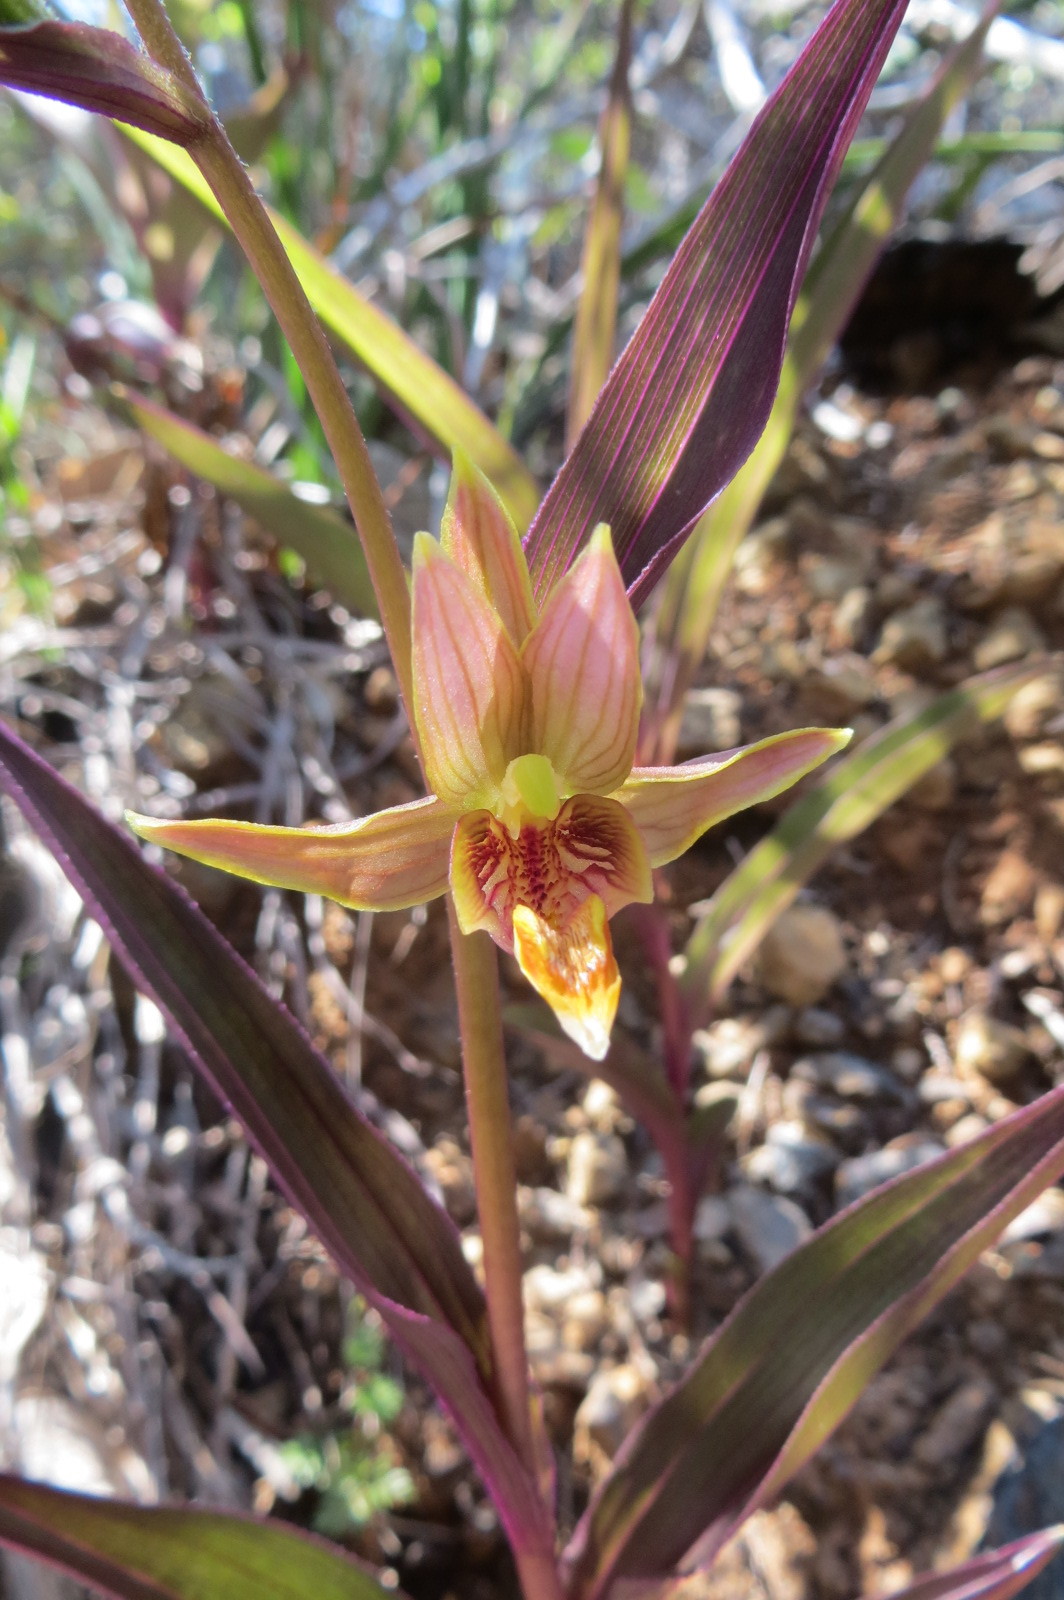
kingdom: Plantae
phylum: Tracheophyta
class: Liliopsida
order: Asparagales
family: Orchidaceae
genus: Epipactis
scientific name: Epipactis gigantea
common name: Chatterbox
